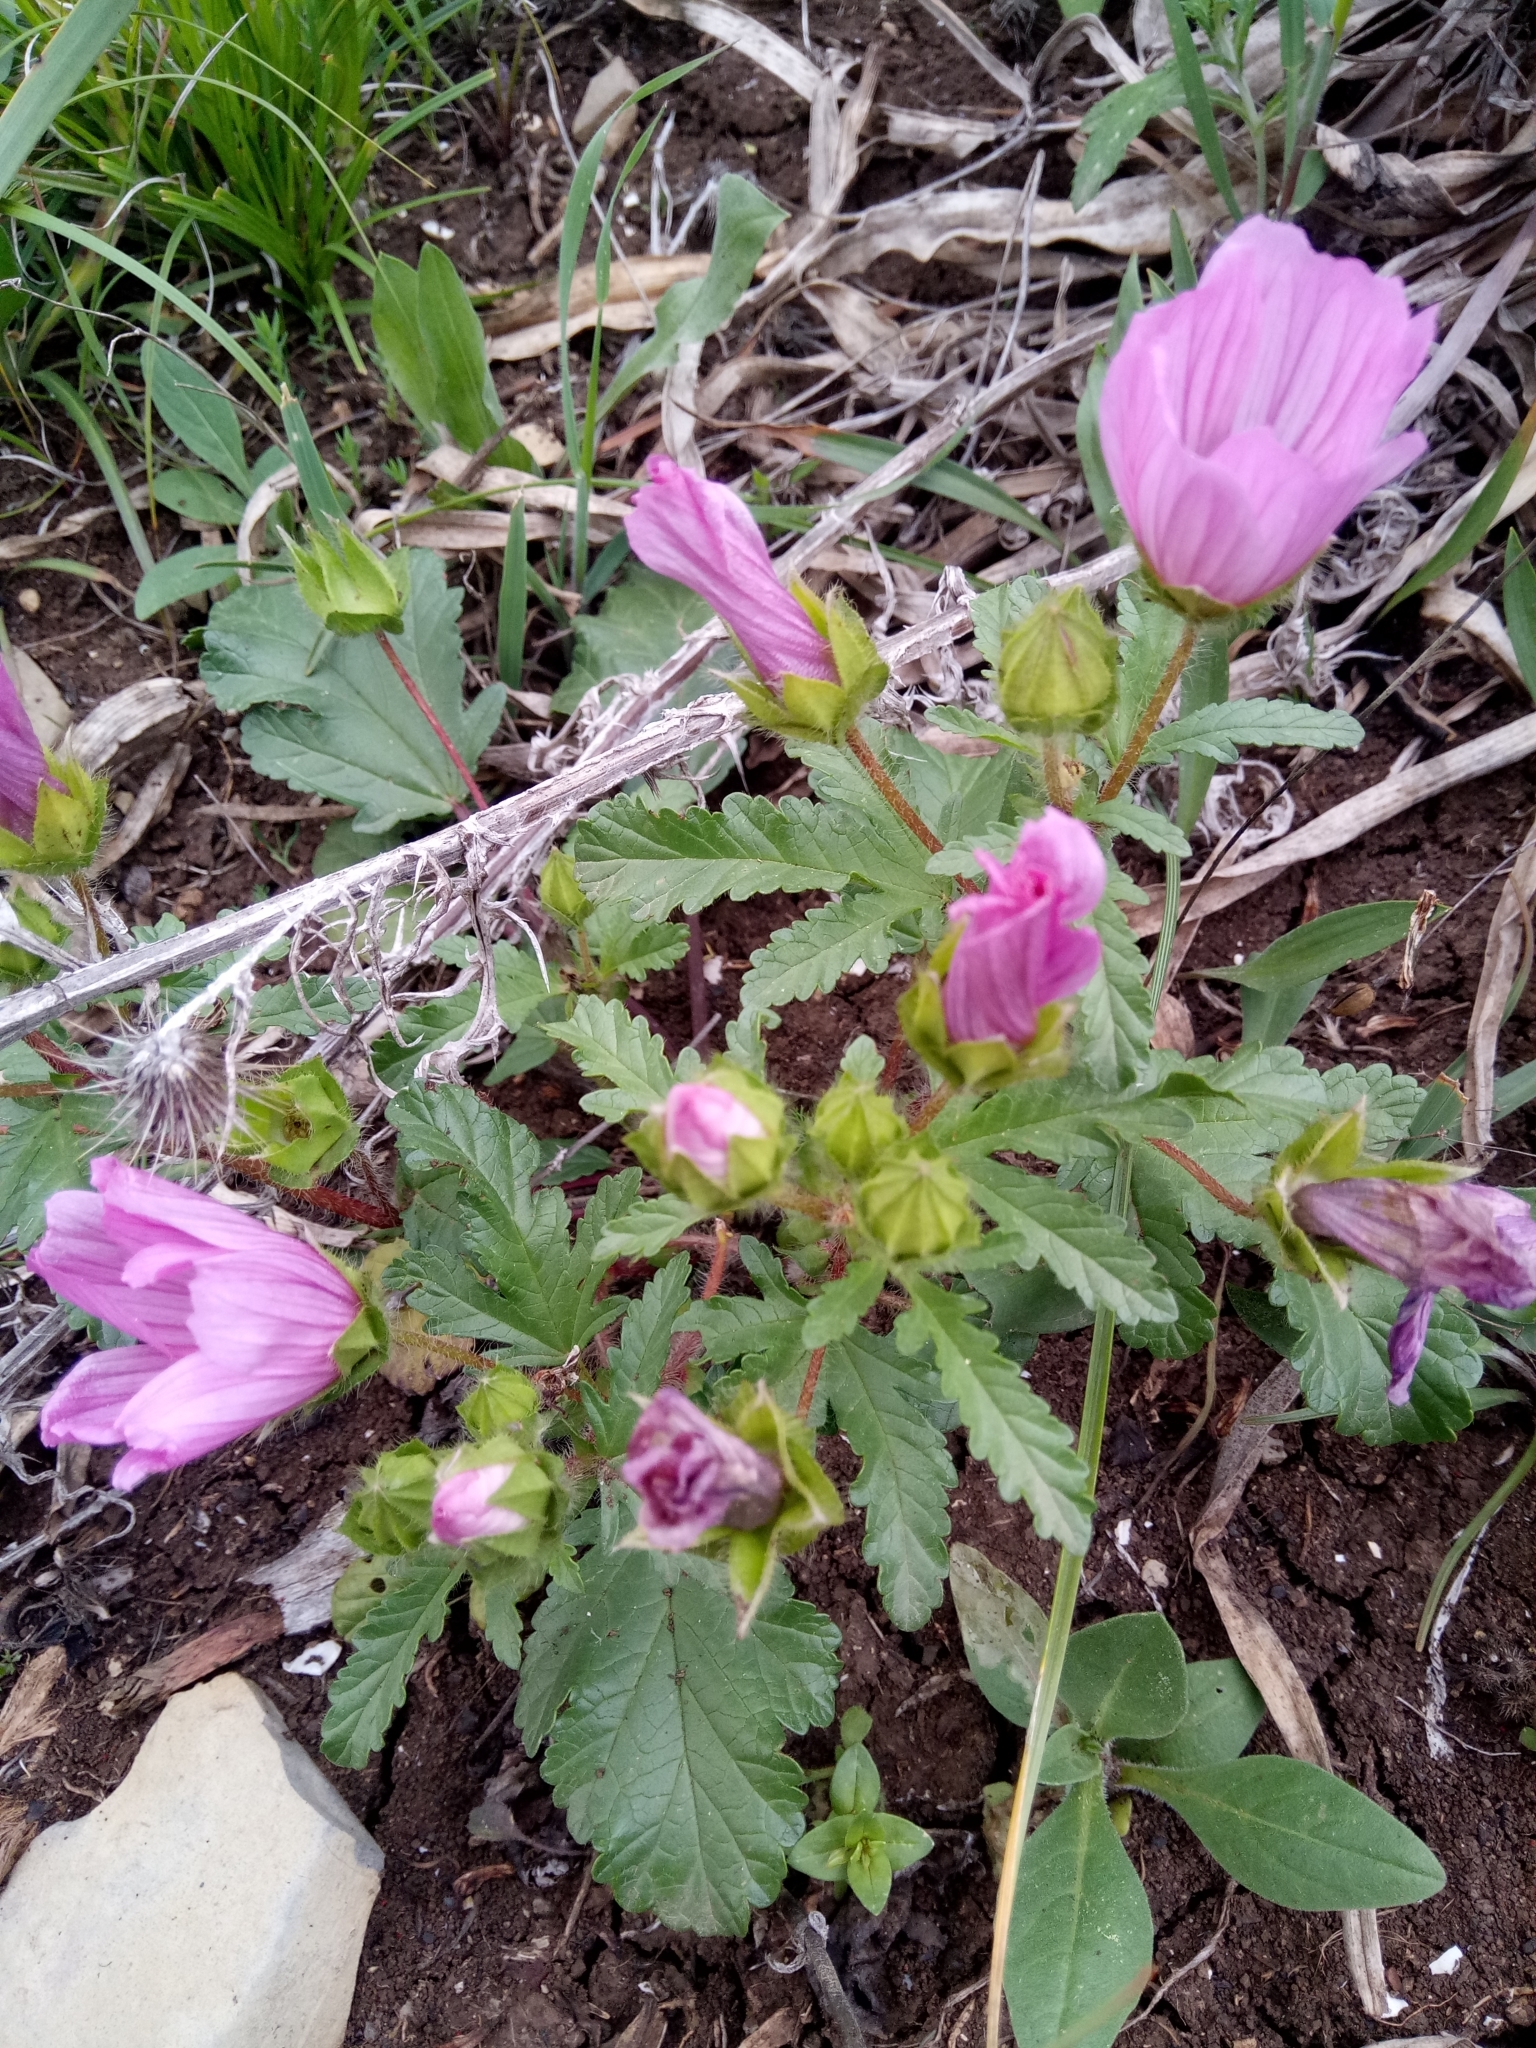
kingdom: Plantae
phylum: Tracheophyta
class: Magnoliopsida
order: Malvales
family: Malvaceae
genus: Malope
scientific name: Malope malacoides
